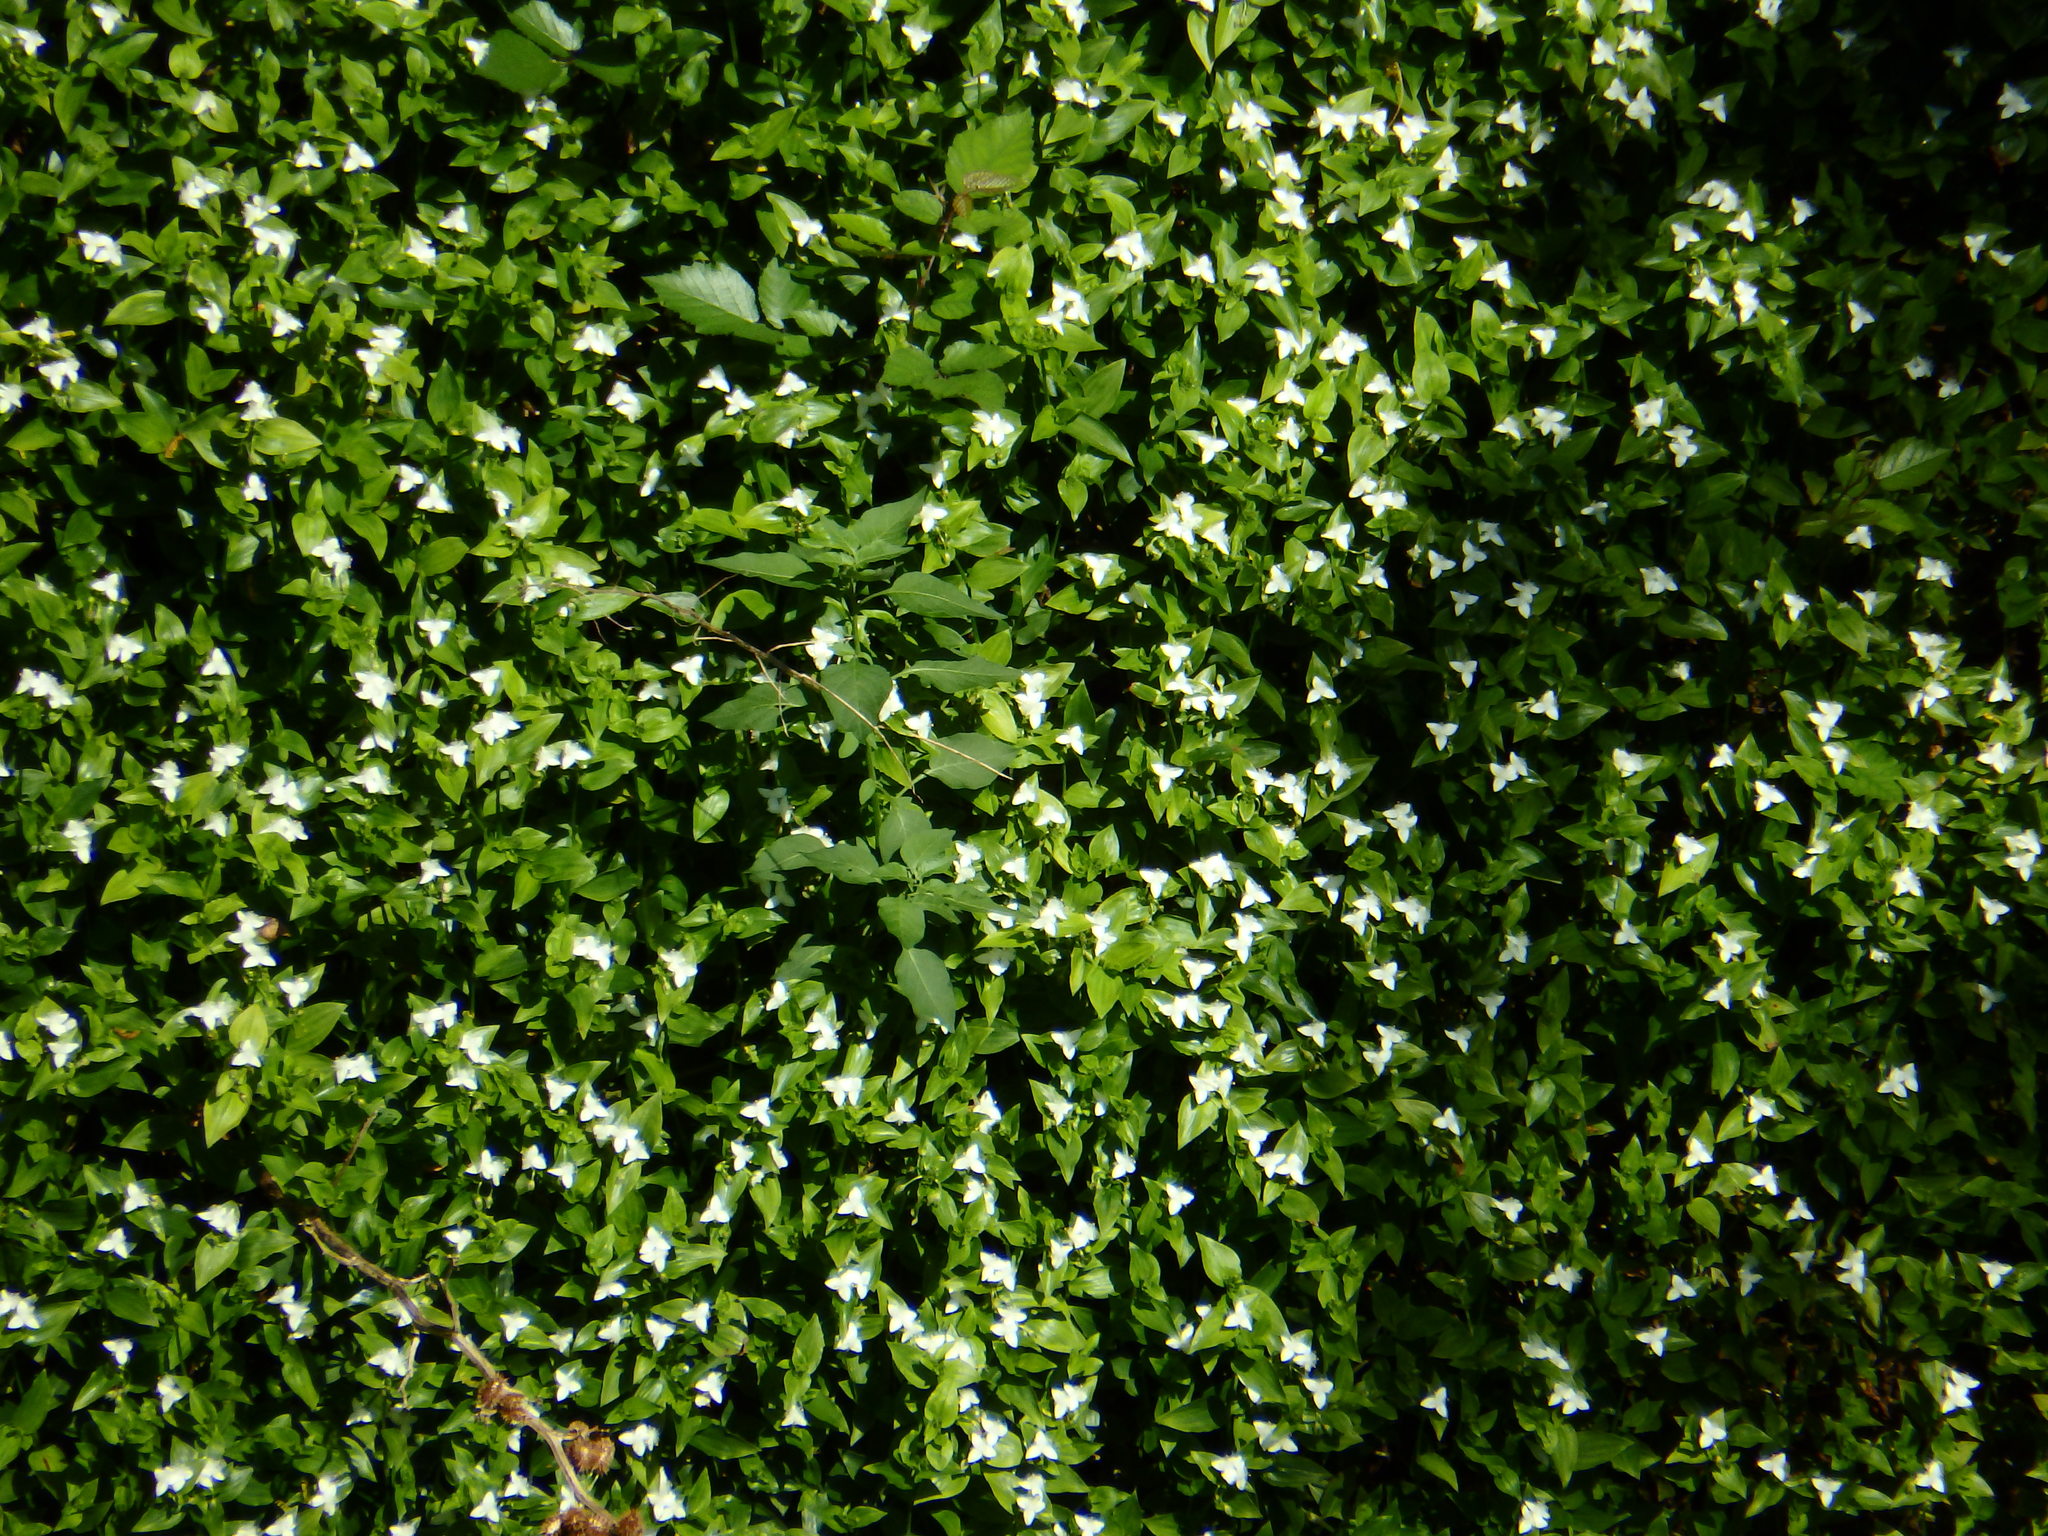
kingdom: Plantae
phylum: Tracheophyta
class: Liliopsida
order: Commelinales
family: Commelinaceae
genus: Tradescantia
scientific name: Tradescantia fluminensis
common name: Wandering-jew
